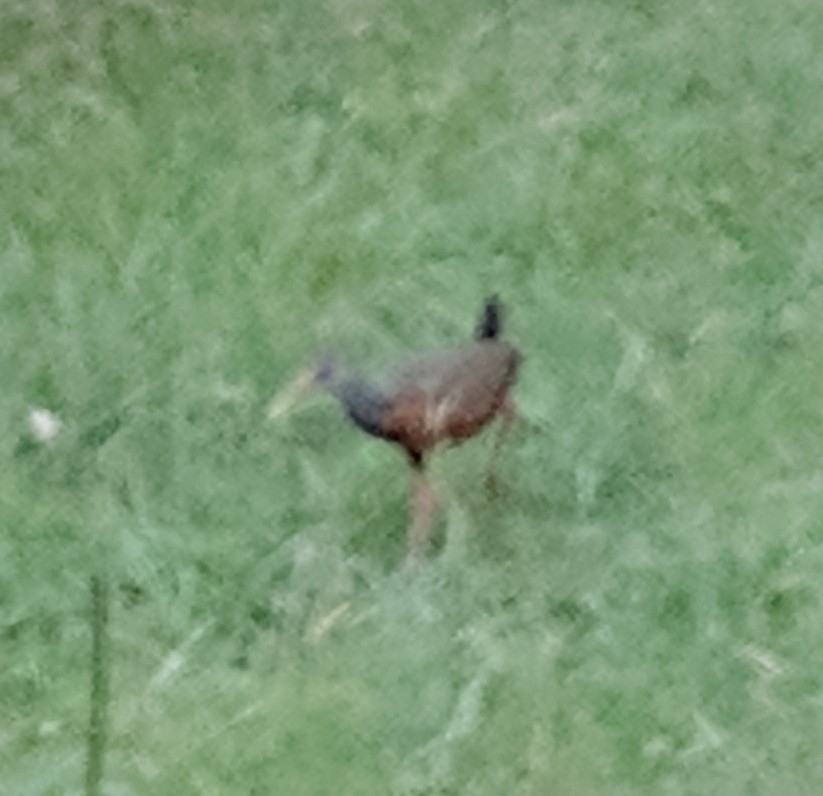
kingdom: Animalia
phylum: Chordata
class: Aves
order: Gruiformes
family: Rallidae
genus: Aramides
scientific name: Aramides cajanea
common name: Gray-necked wood-rail
